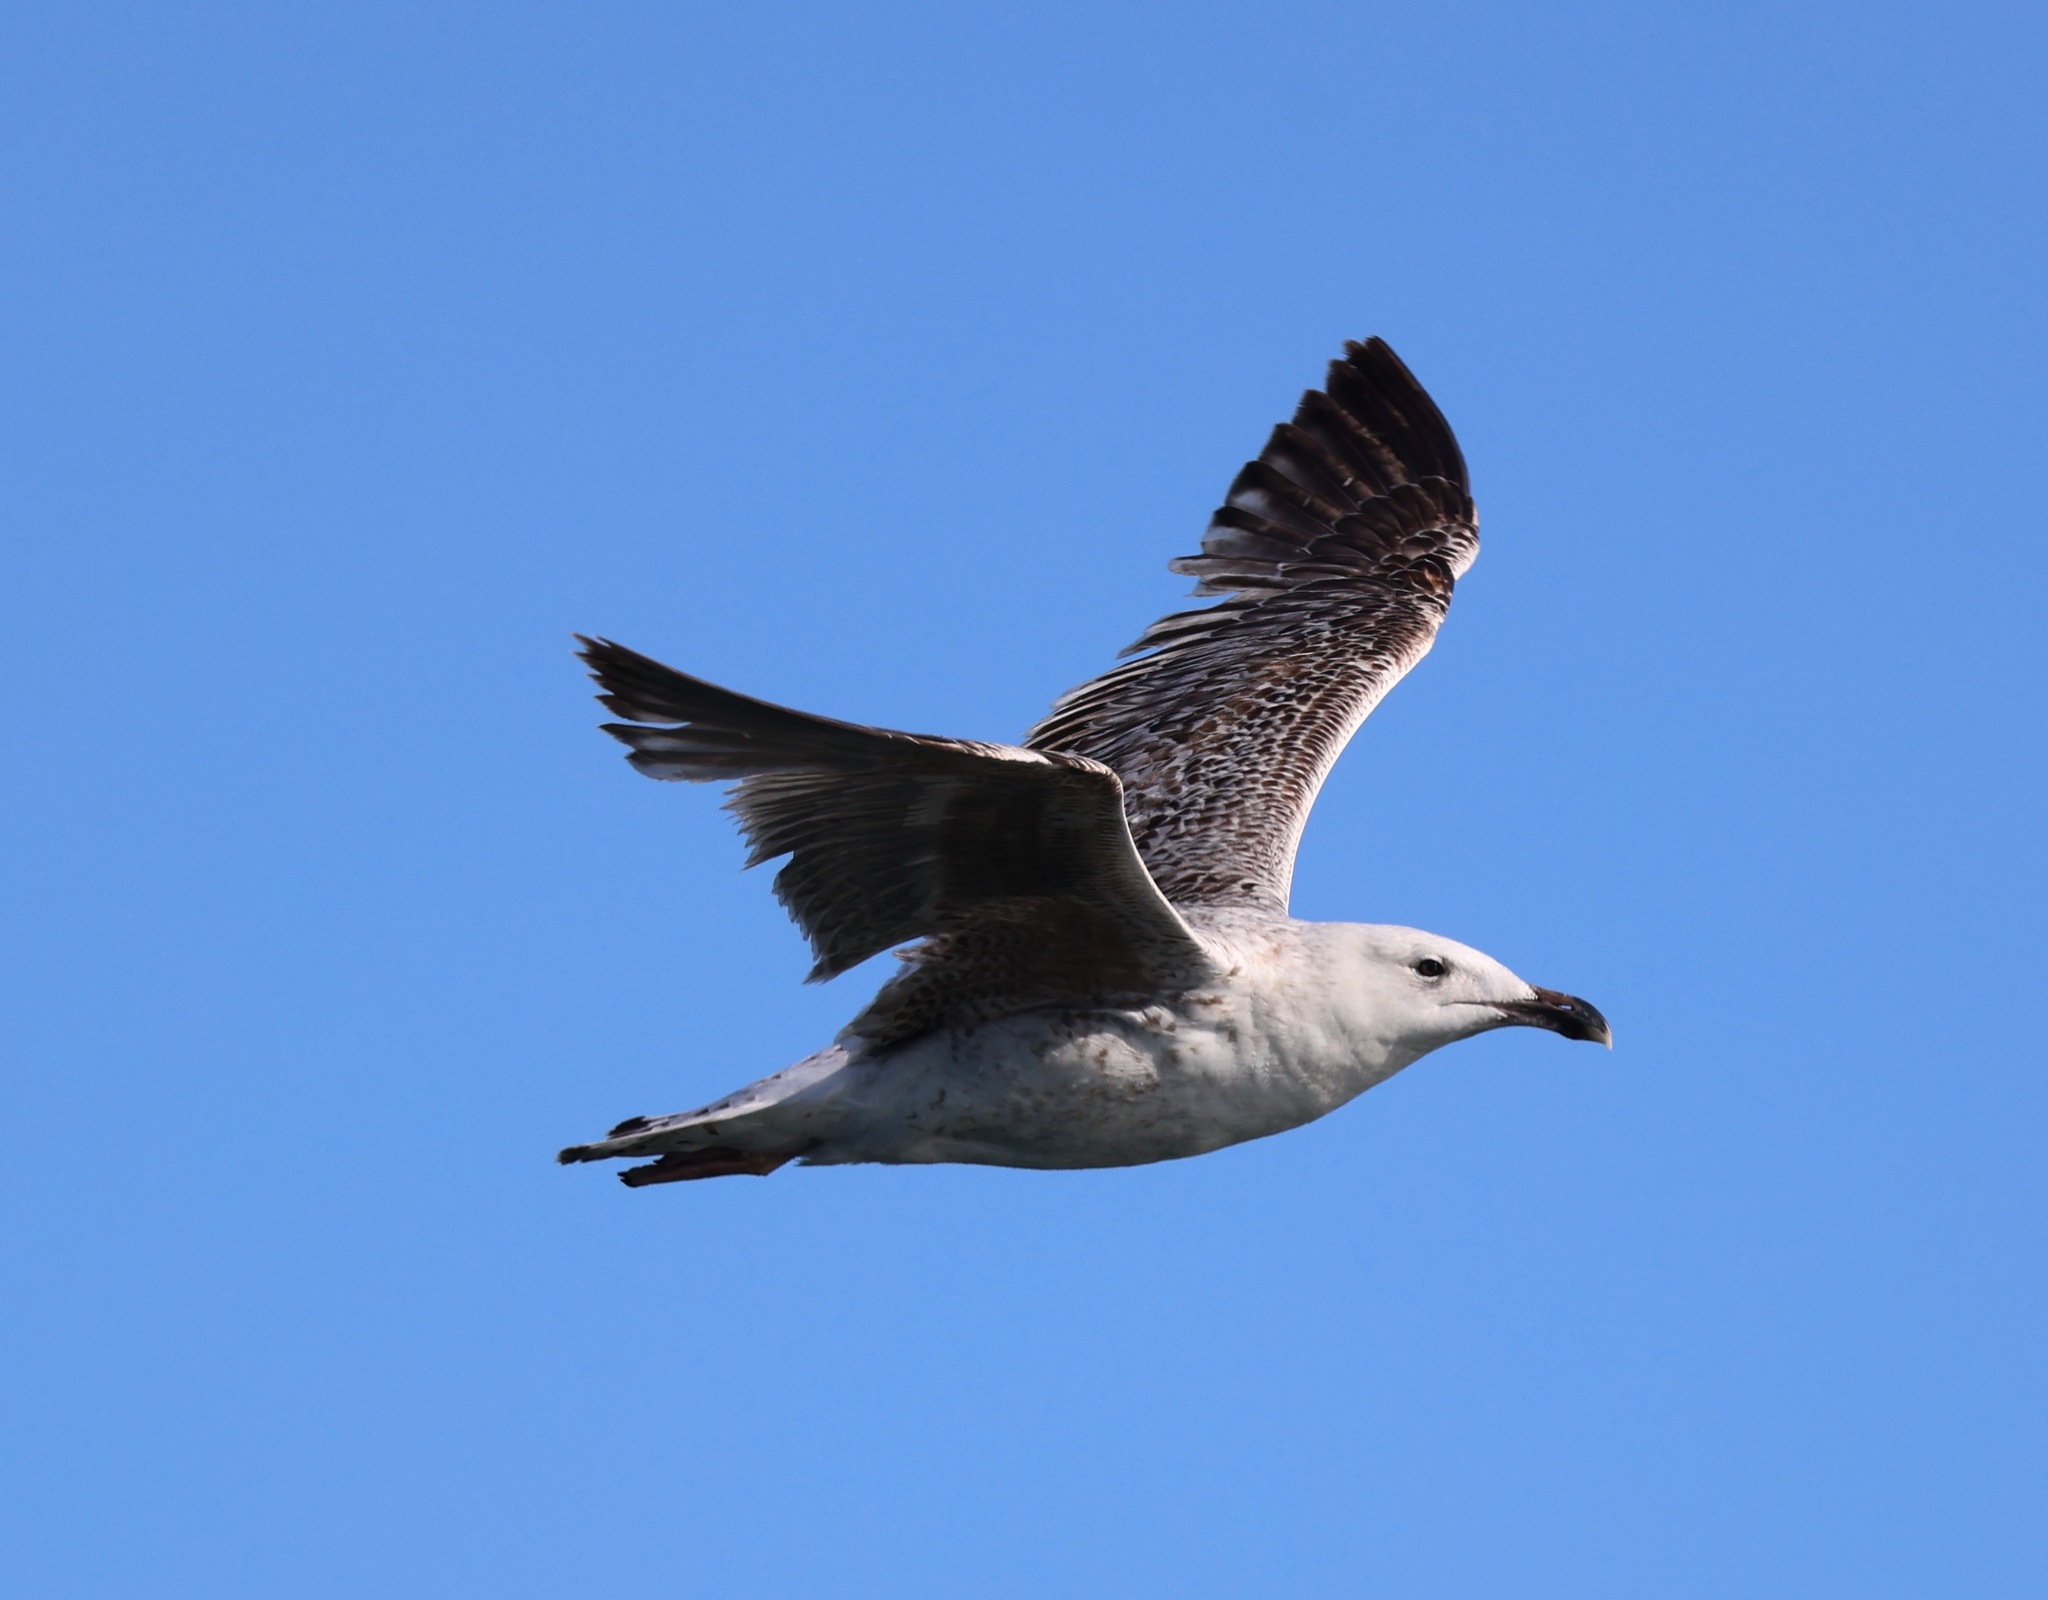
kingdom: Animalia
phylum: Chordata
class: Aves
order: Charadriiformes
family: Laridae
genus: Larus
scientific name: Larus marinus
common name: Great black-backed gull
